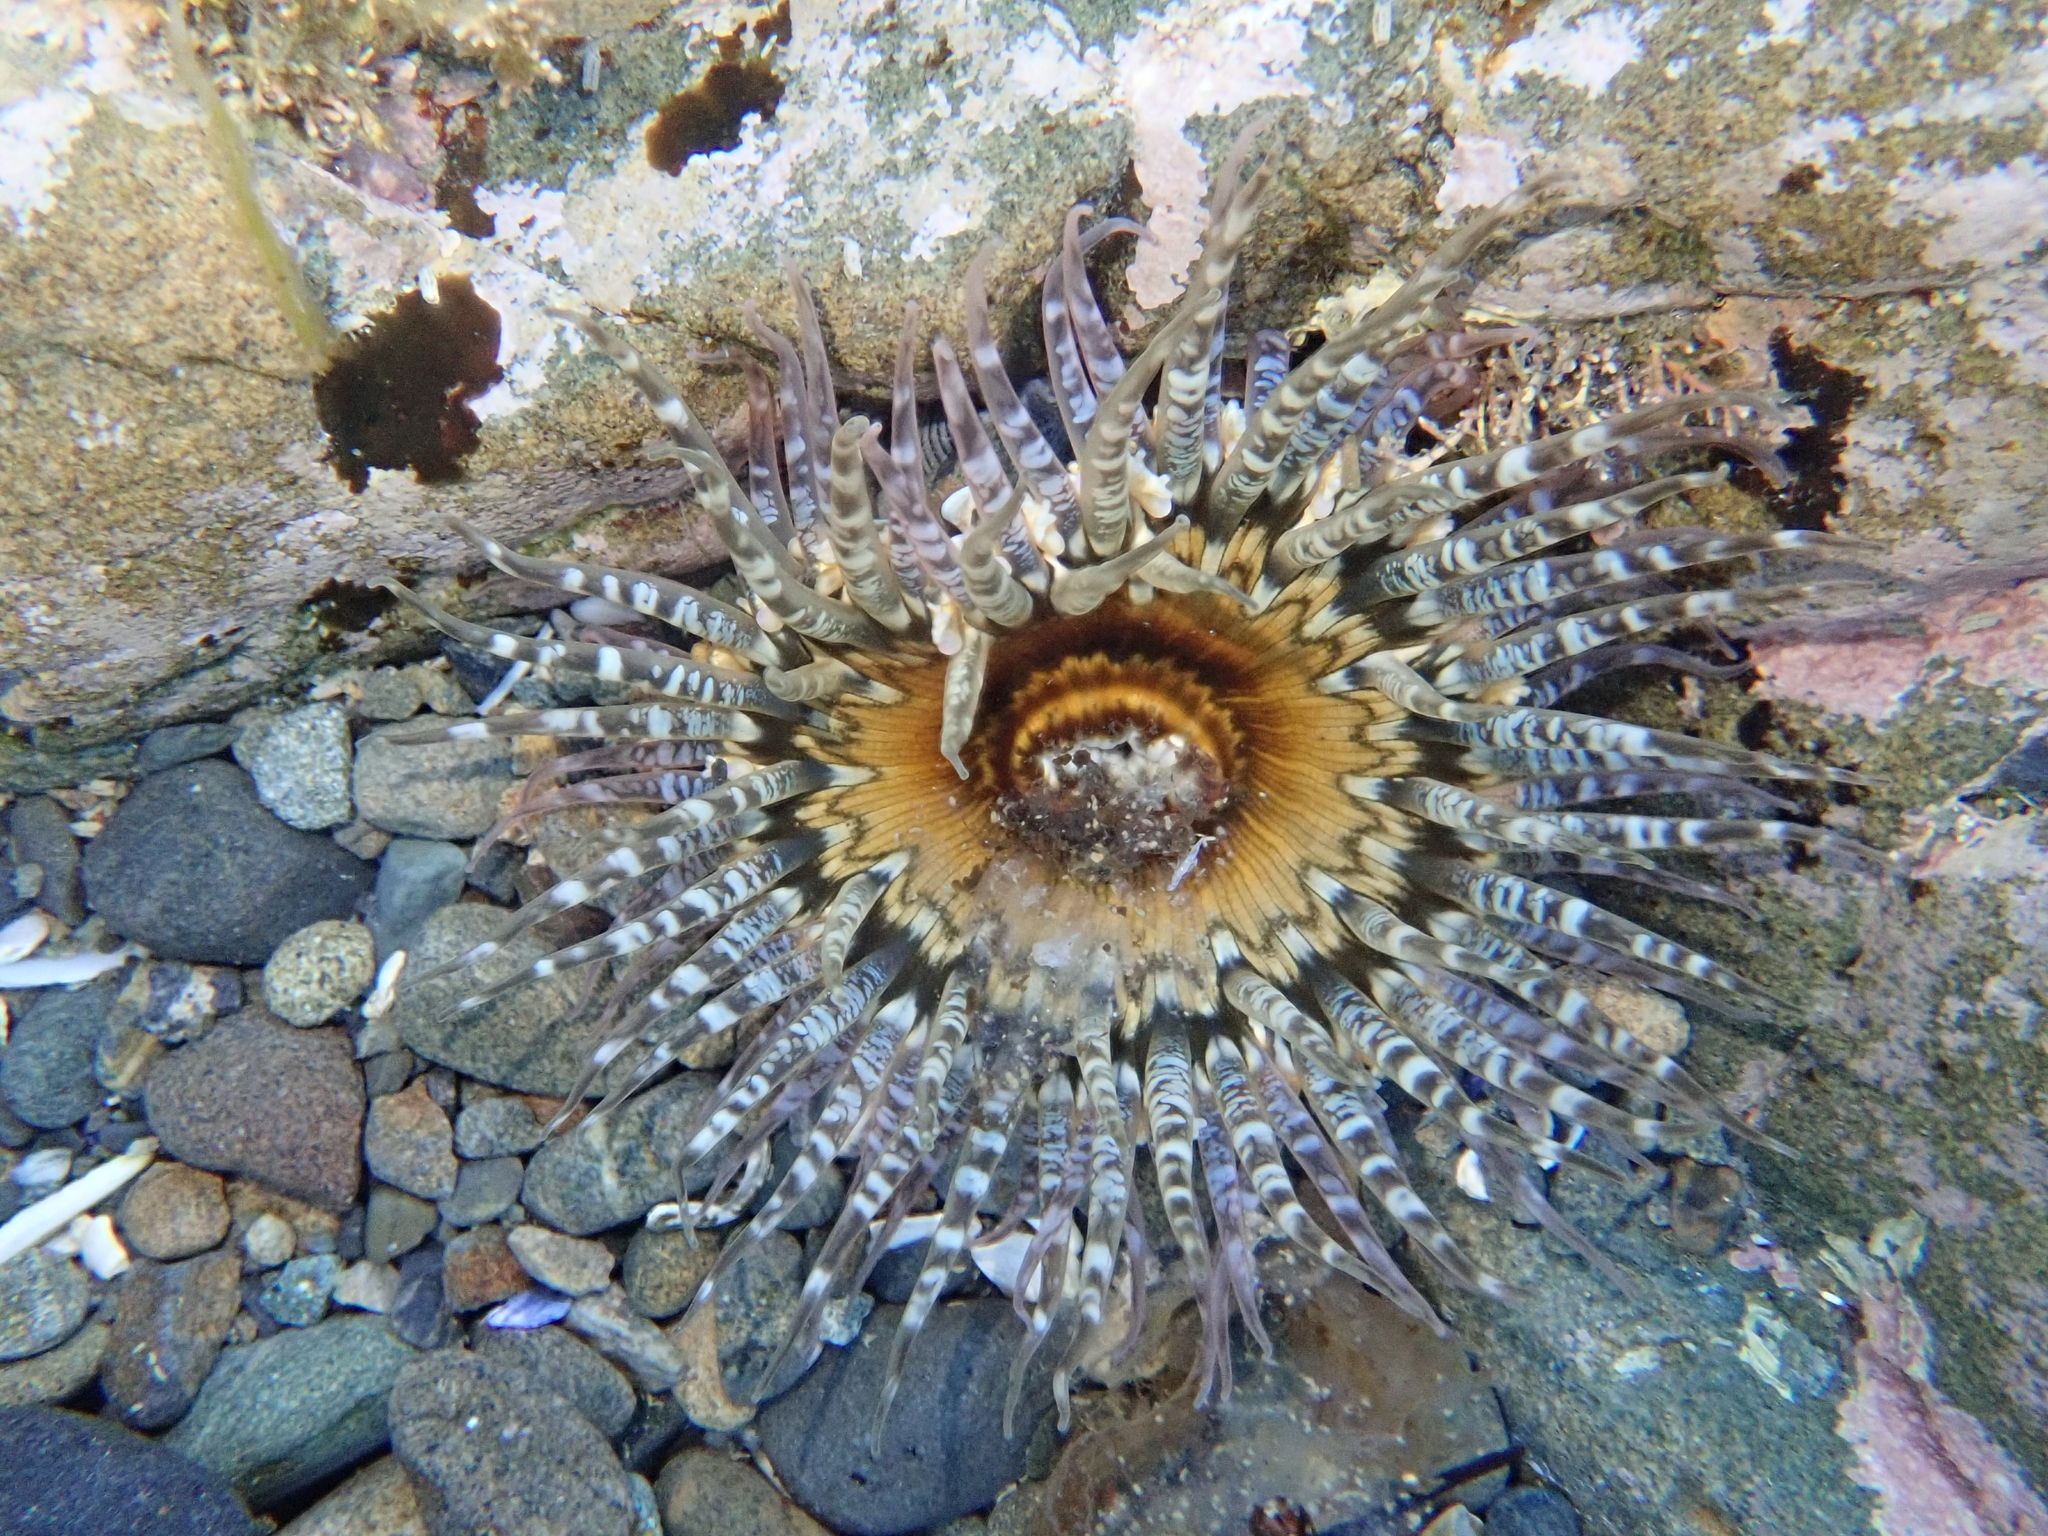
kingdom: Animalia
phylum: Cnidaria
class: Anthozoa
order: Actiniaria
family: Actiniidae
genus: Oulactis
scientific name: Oulactis muscosa
